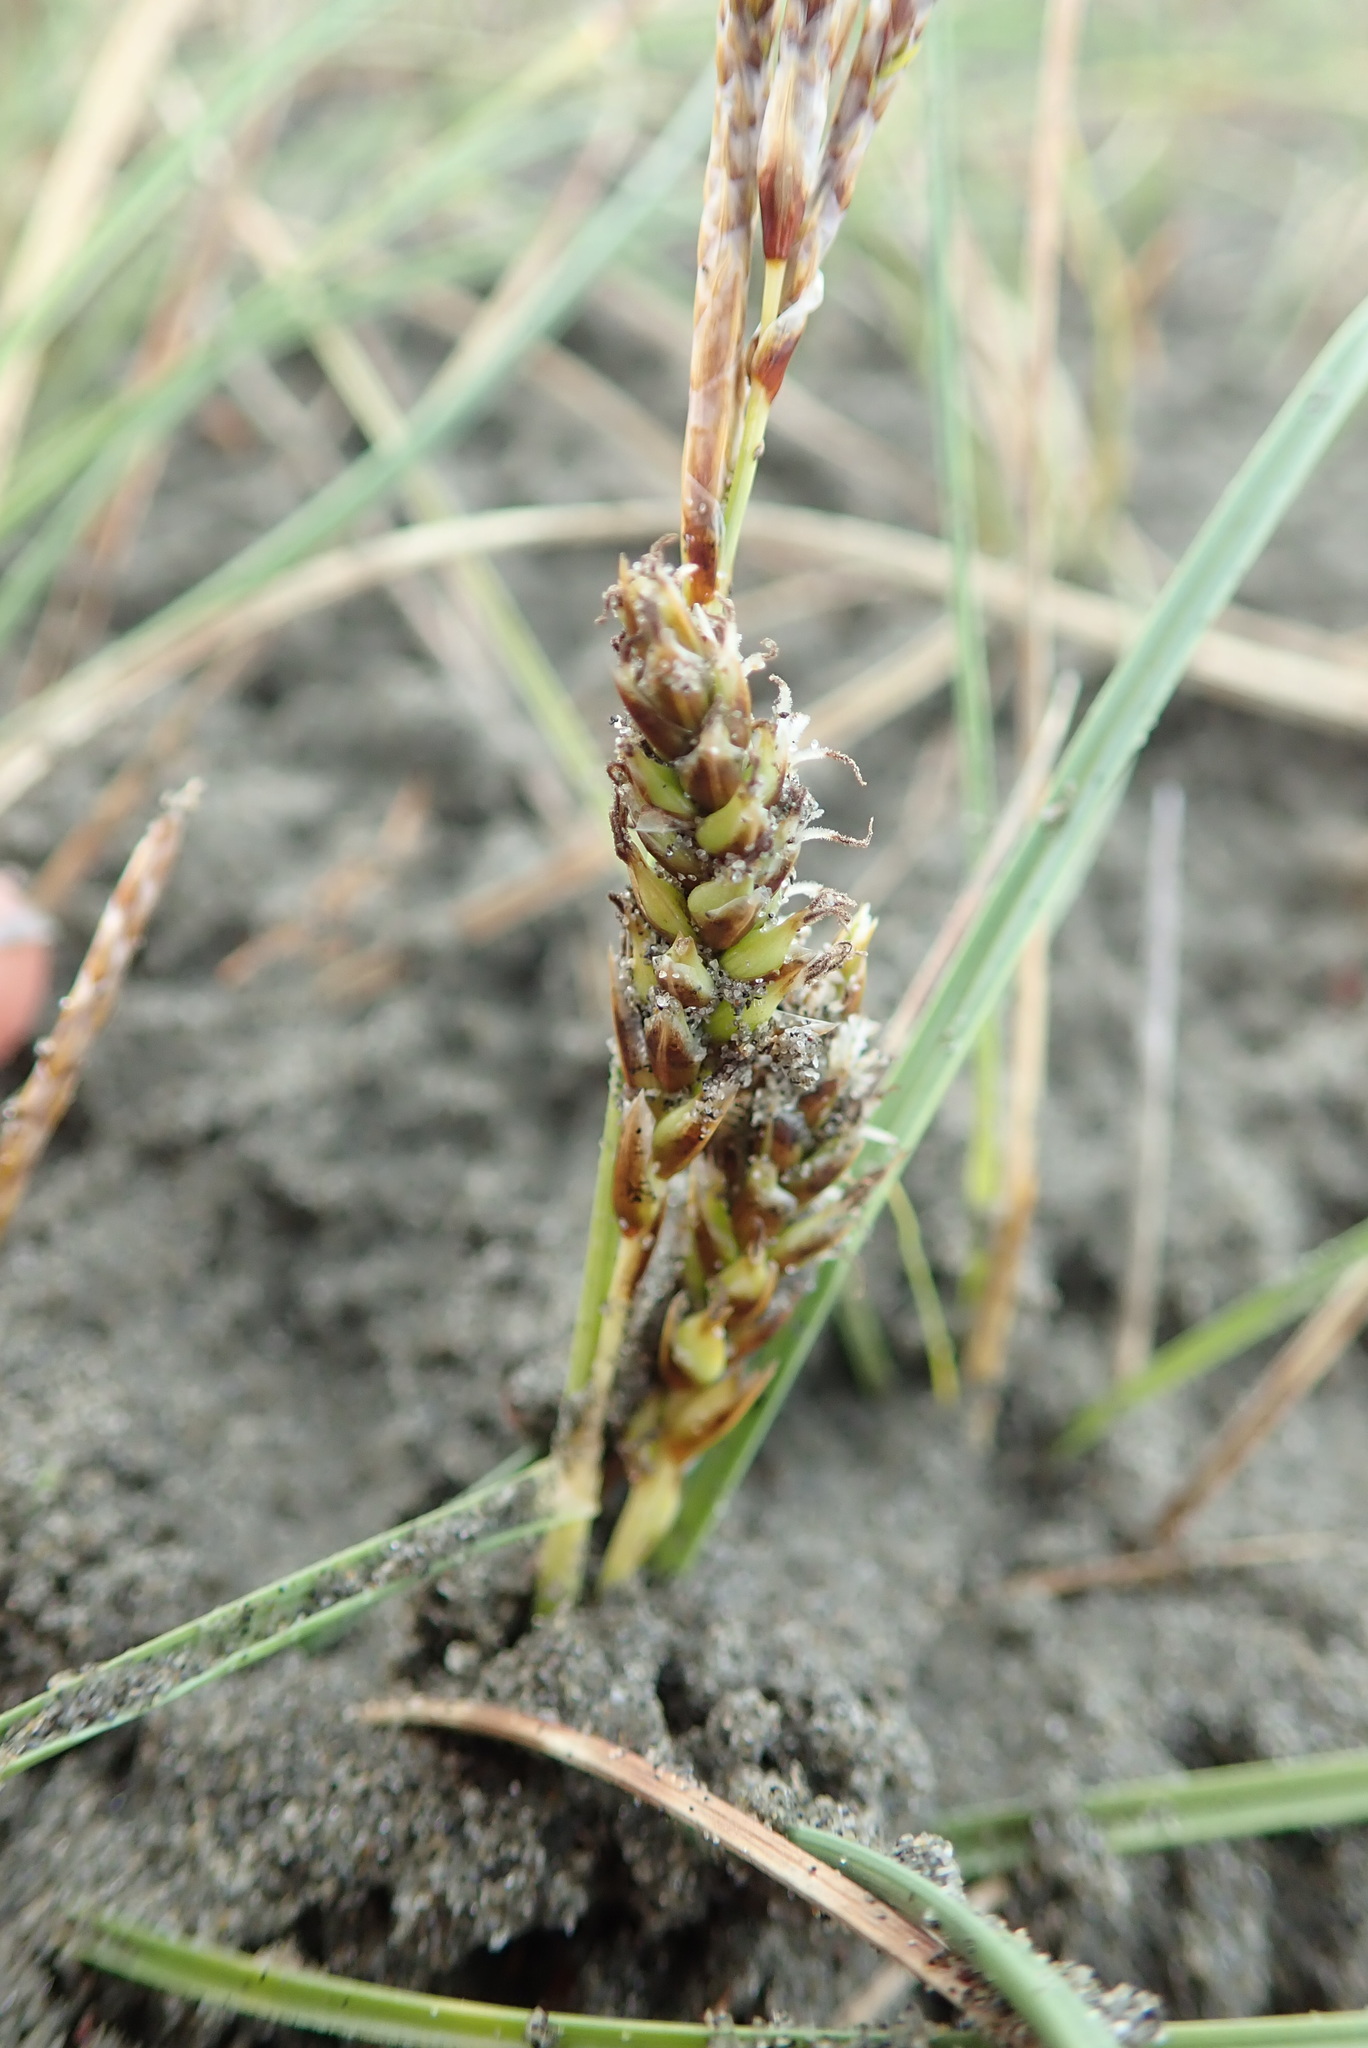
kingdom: Plantae
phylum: Tracheophyta
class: Liliopsida
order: Poales
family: Cyperaceae
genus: Carex
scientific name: Carex pumila
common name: Dwarf sedge
